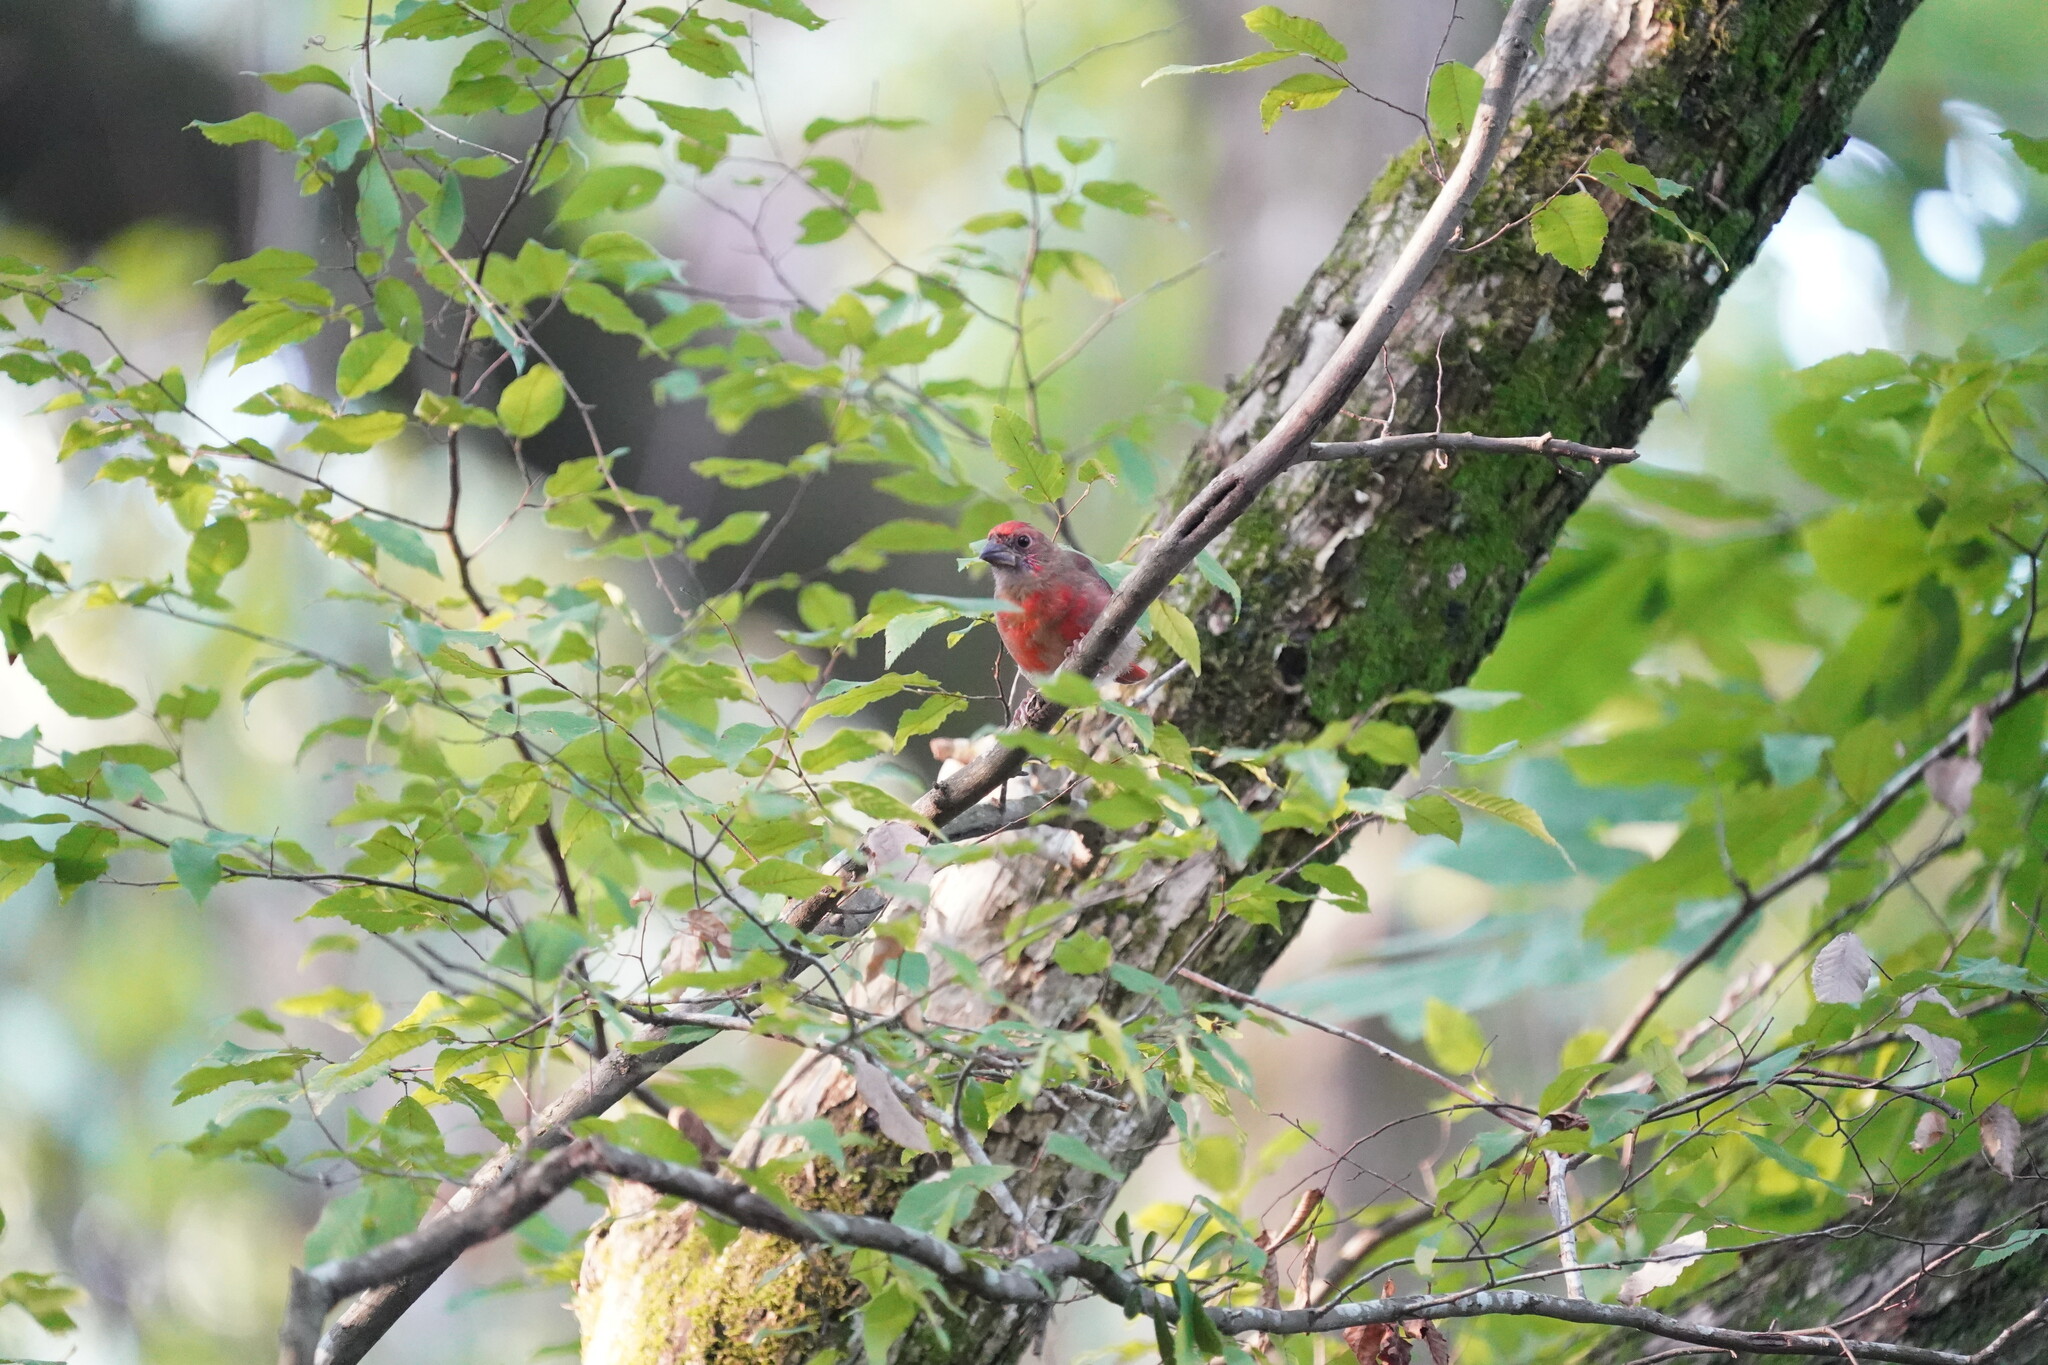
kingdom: Animalia
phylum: Chordata
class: Aves
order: Passeriformes
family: Cardinalidae
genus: Cardinalis
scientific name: Cardinalis cardinalis
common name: Northern cardinal
